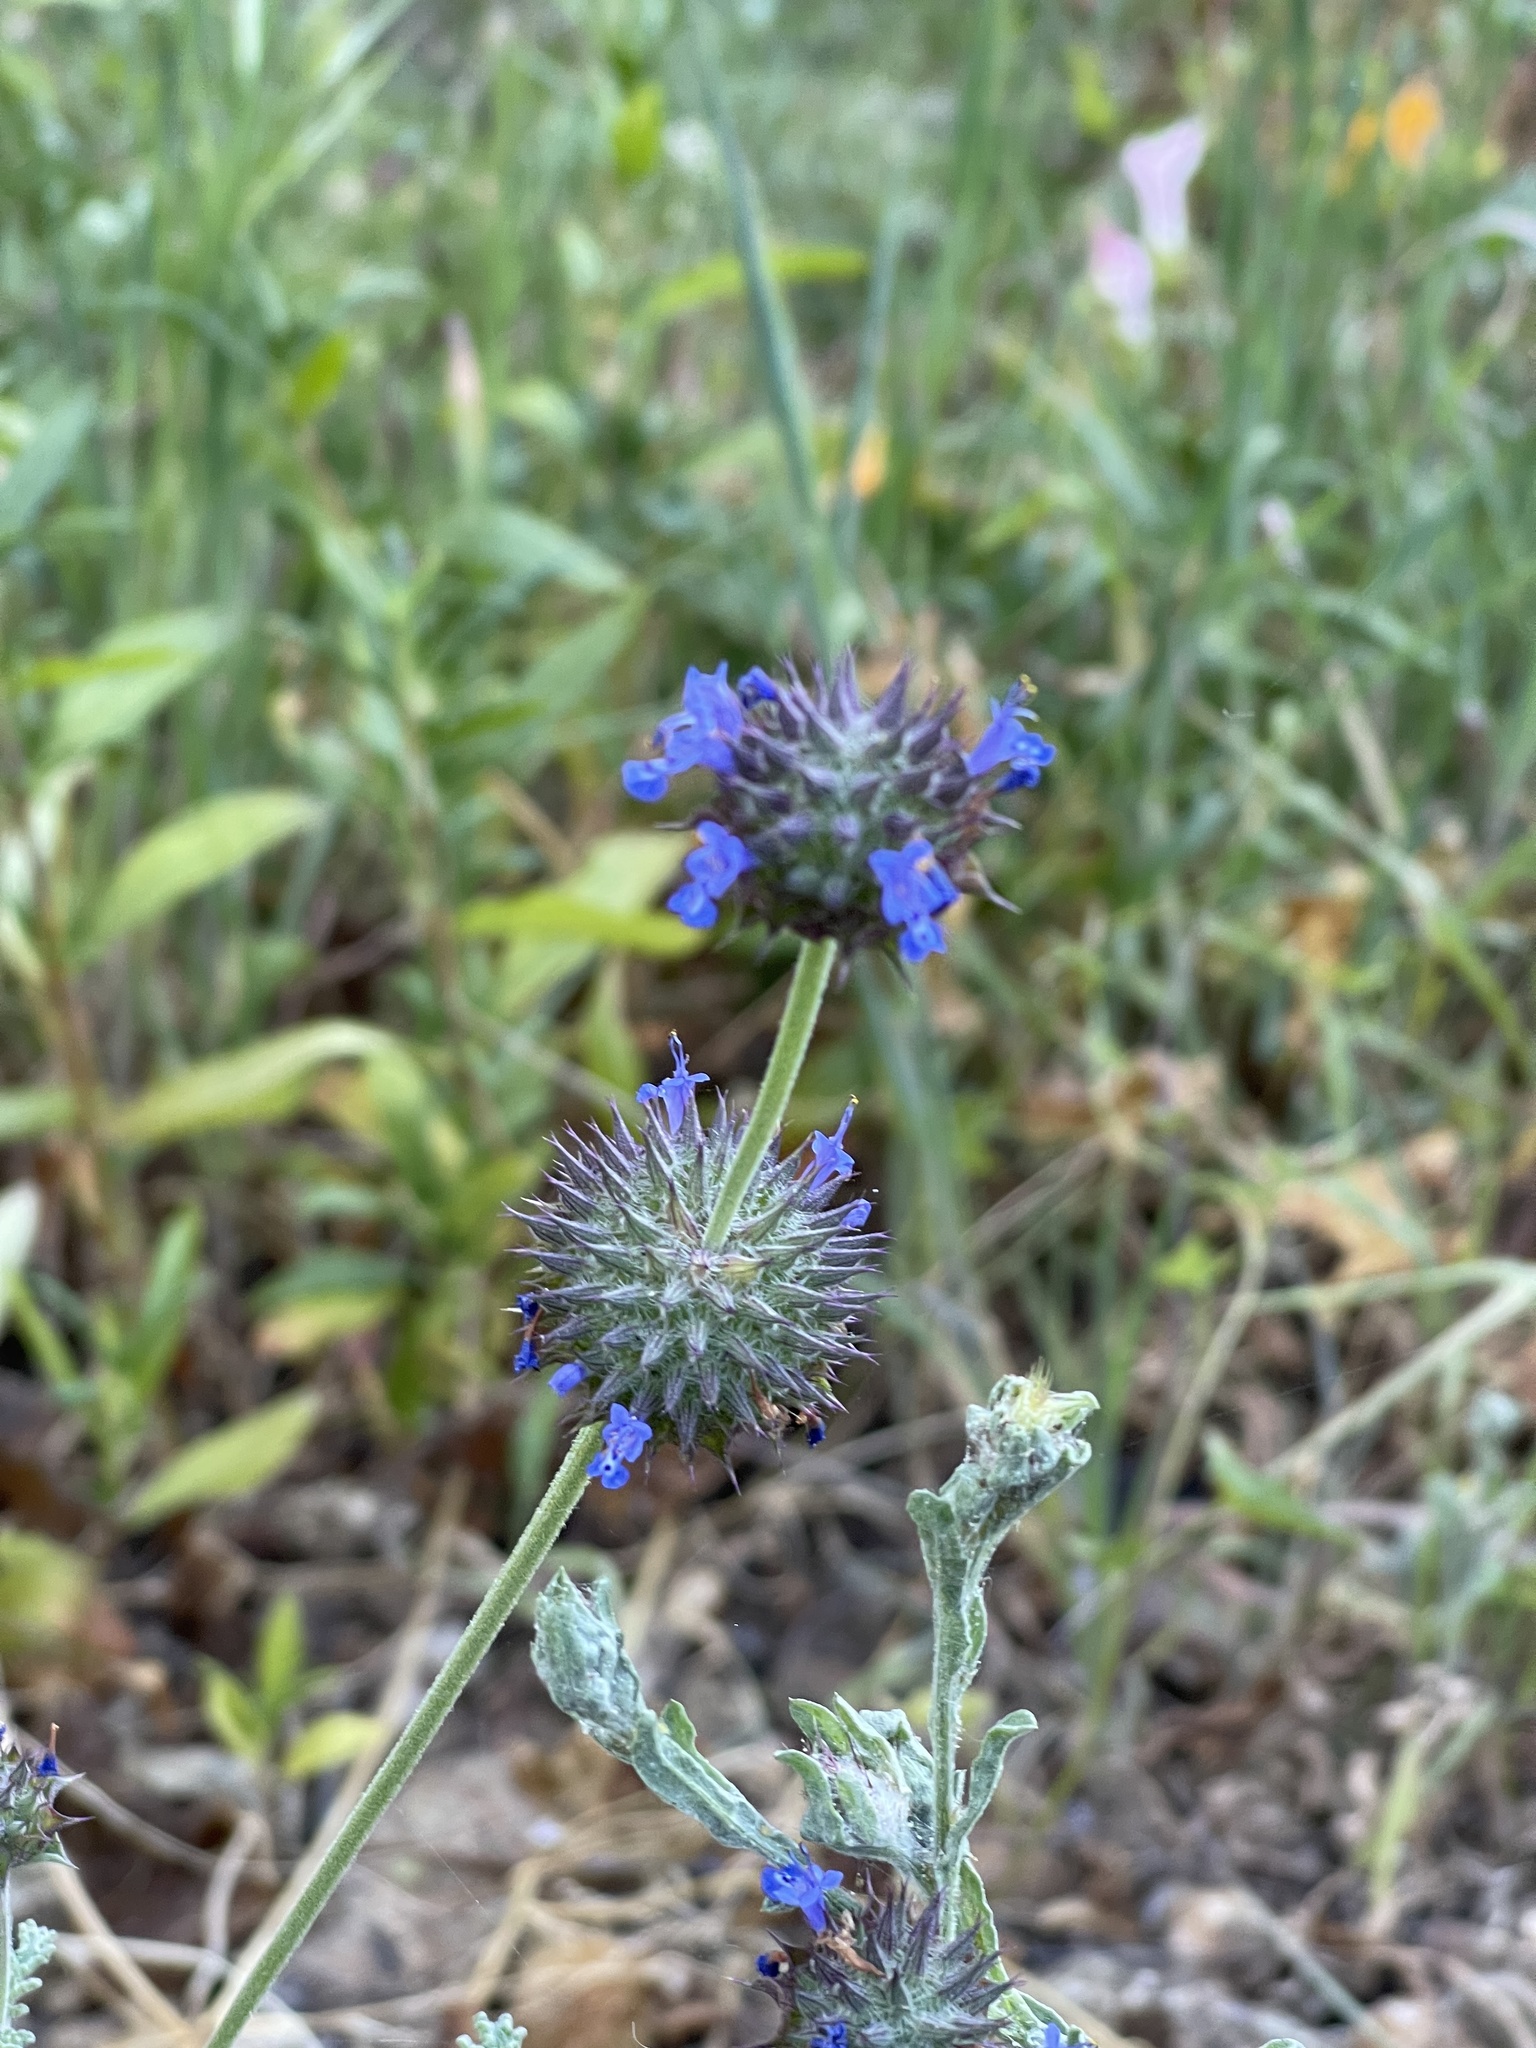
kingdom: Plantae
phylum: Tracheophyta
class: Magnoliopsida
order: Lamiales
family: Lamiaceae
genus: Salvia
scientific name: Salvia columbariae
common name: Chia
